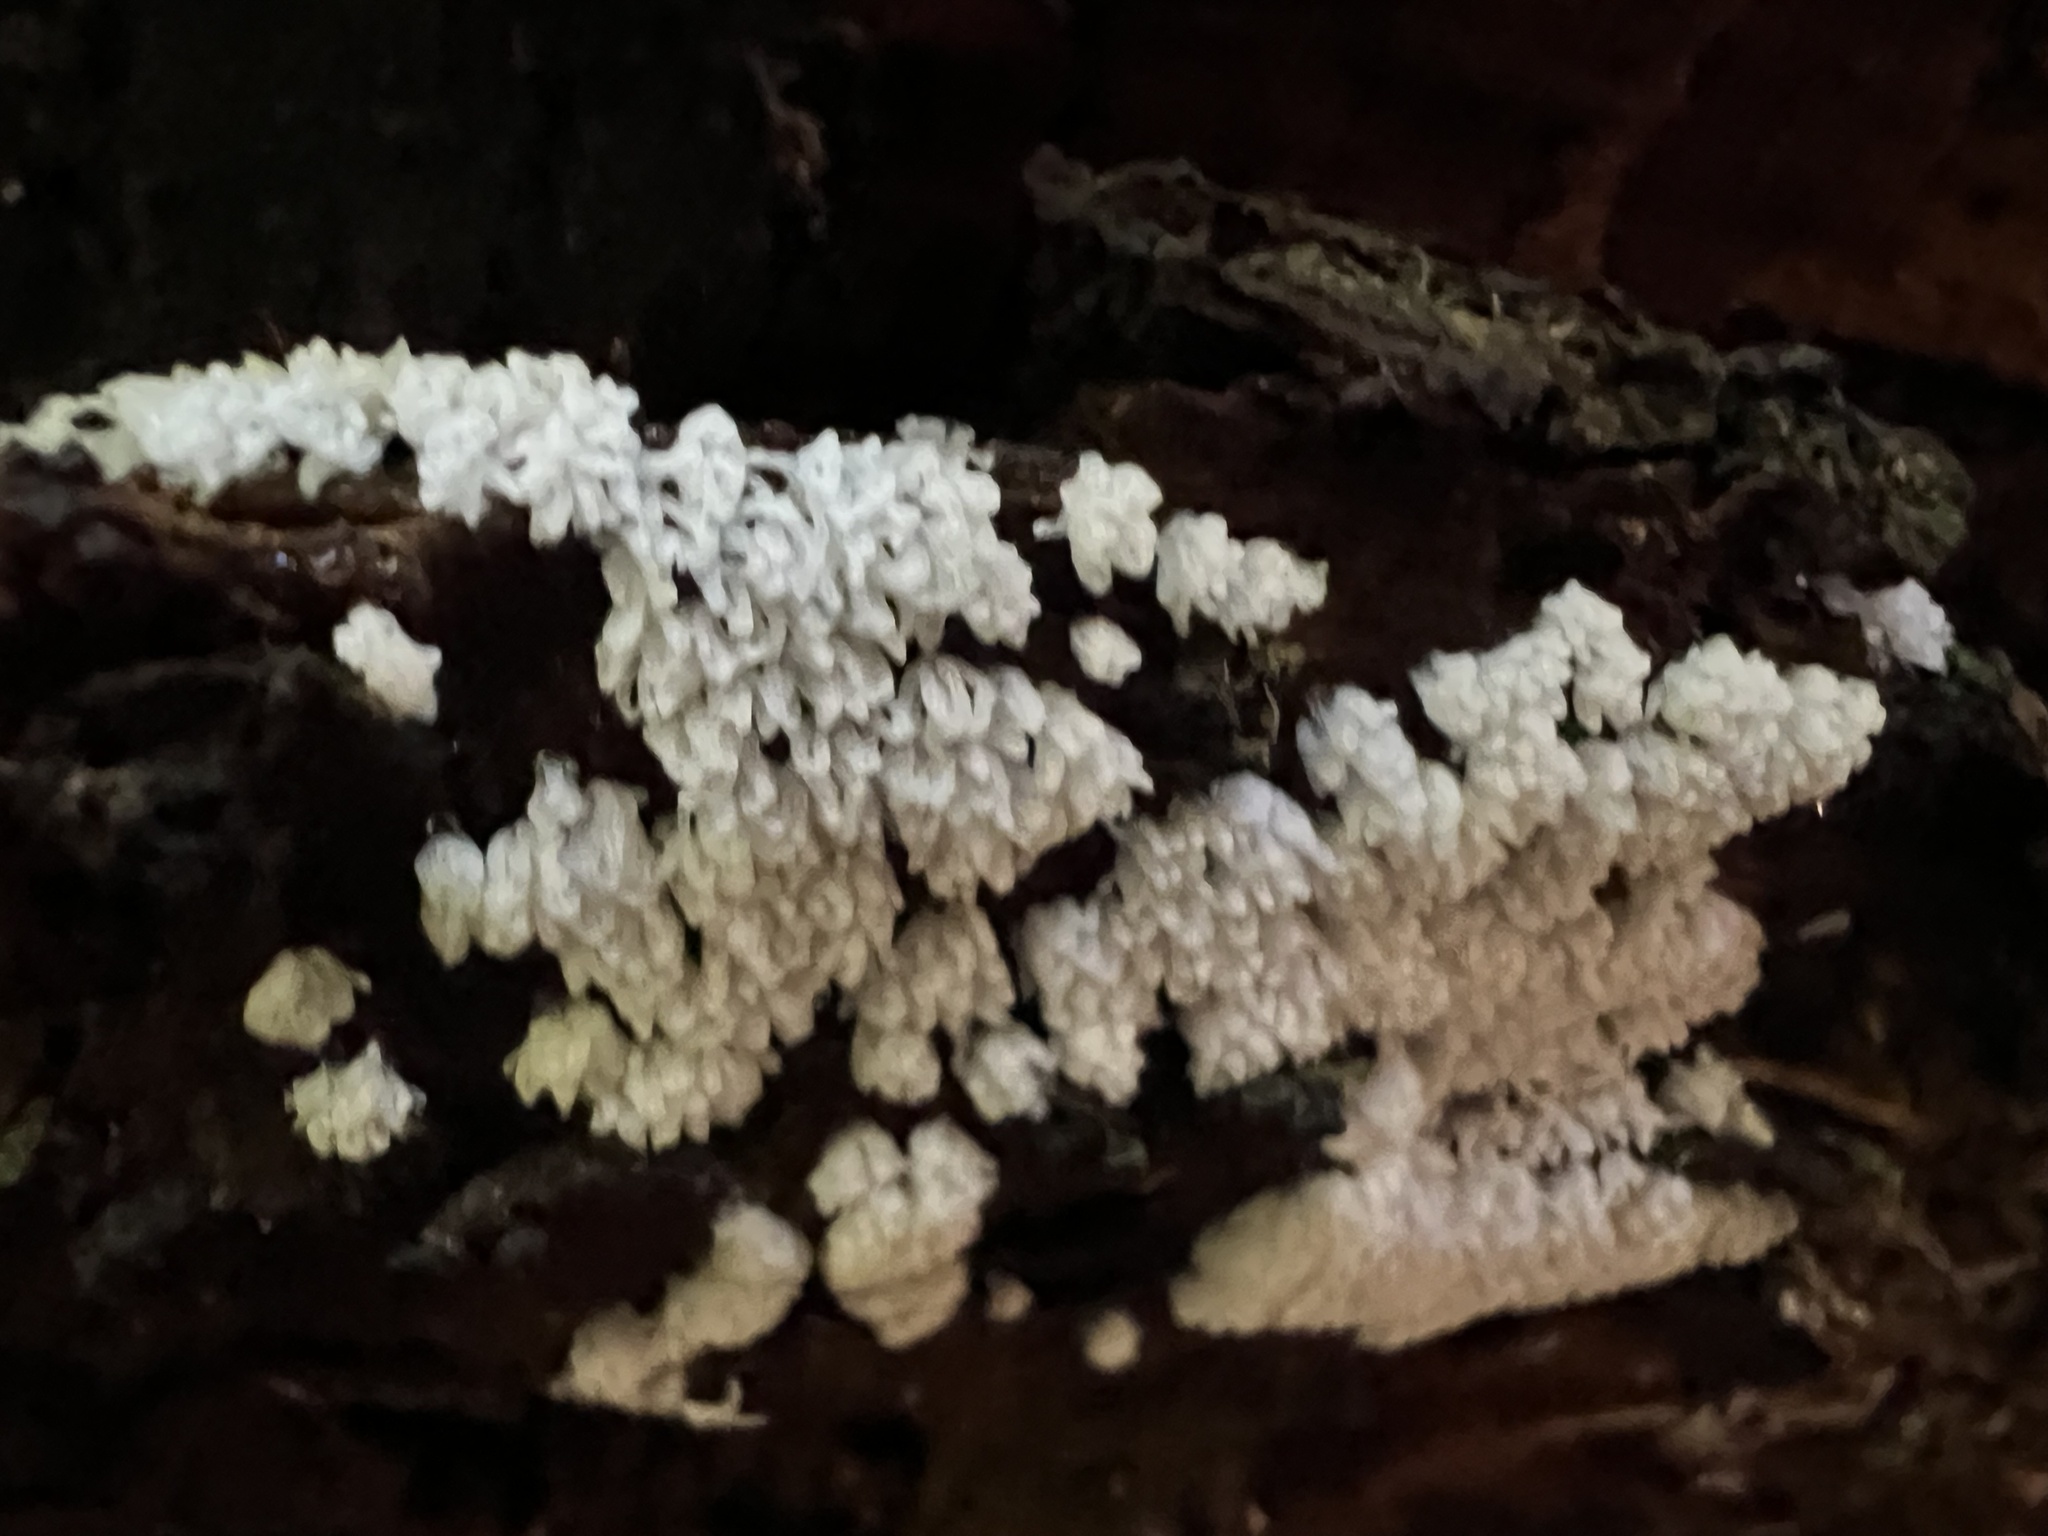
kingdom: Protozoa
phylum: Mycetozoa
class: Protosteliomycetes
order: Ceratiomyxales
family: Ceratiomyxaceae
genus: Ceratiomyxa
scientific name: Ceratiomyxa fruticulosa
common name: Honeycomb coral slime mold
